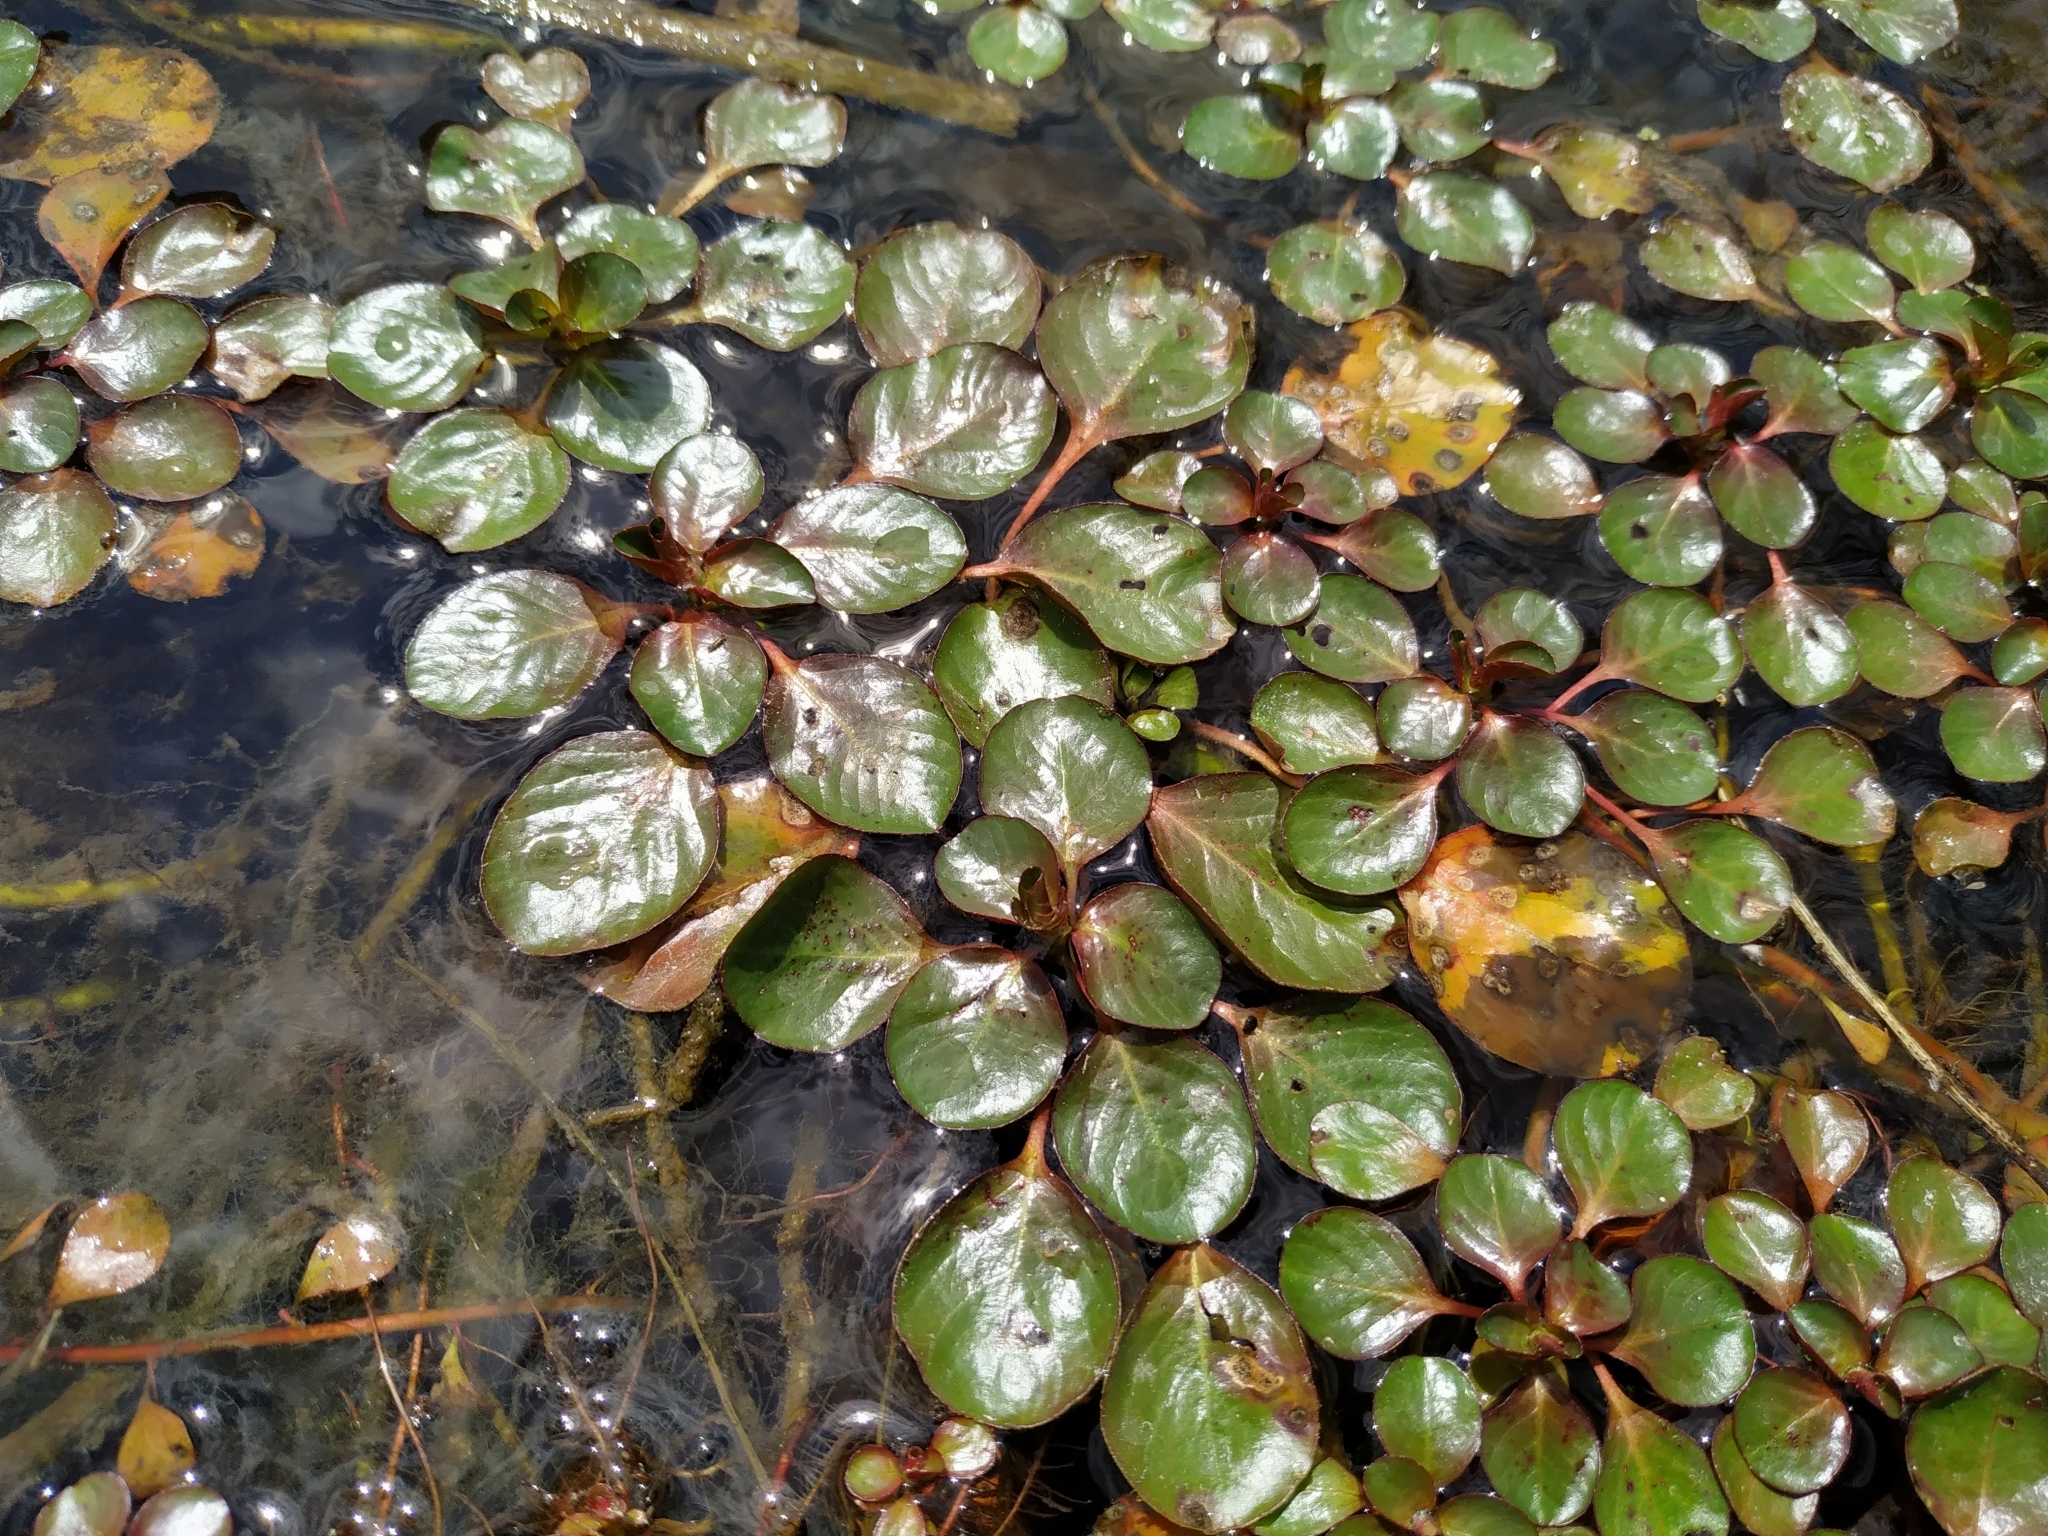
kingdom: Plantae
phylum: Tracheophyta
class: Magnoliopsida
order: Myrtales
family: Onagraceae
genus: Ludwigia
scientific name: Ludwigia peploides
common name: Floating primrose-willow
